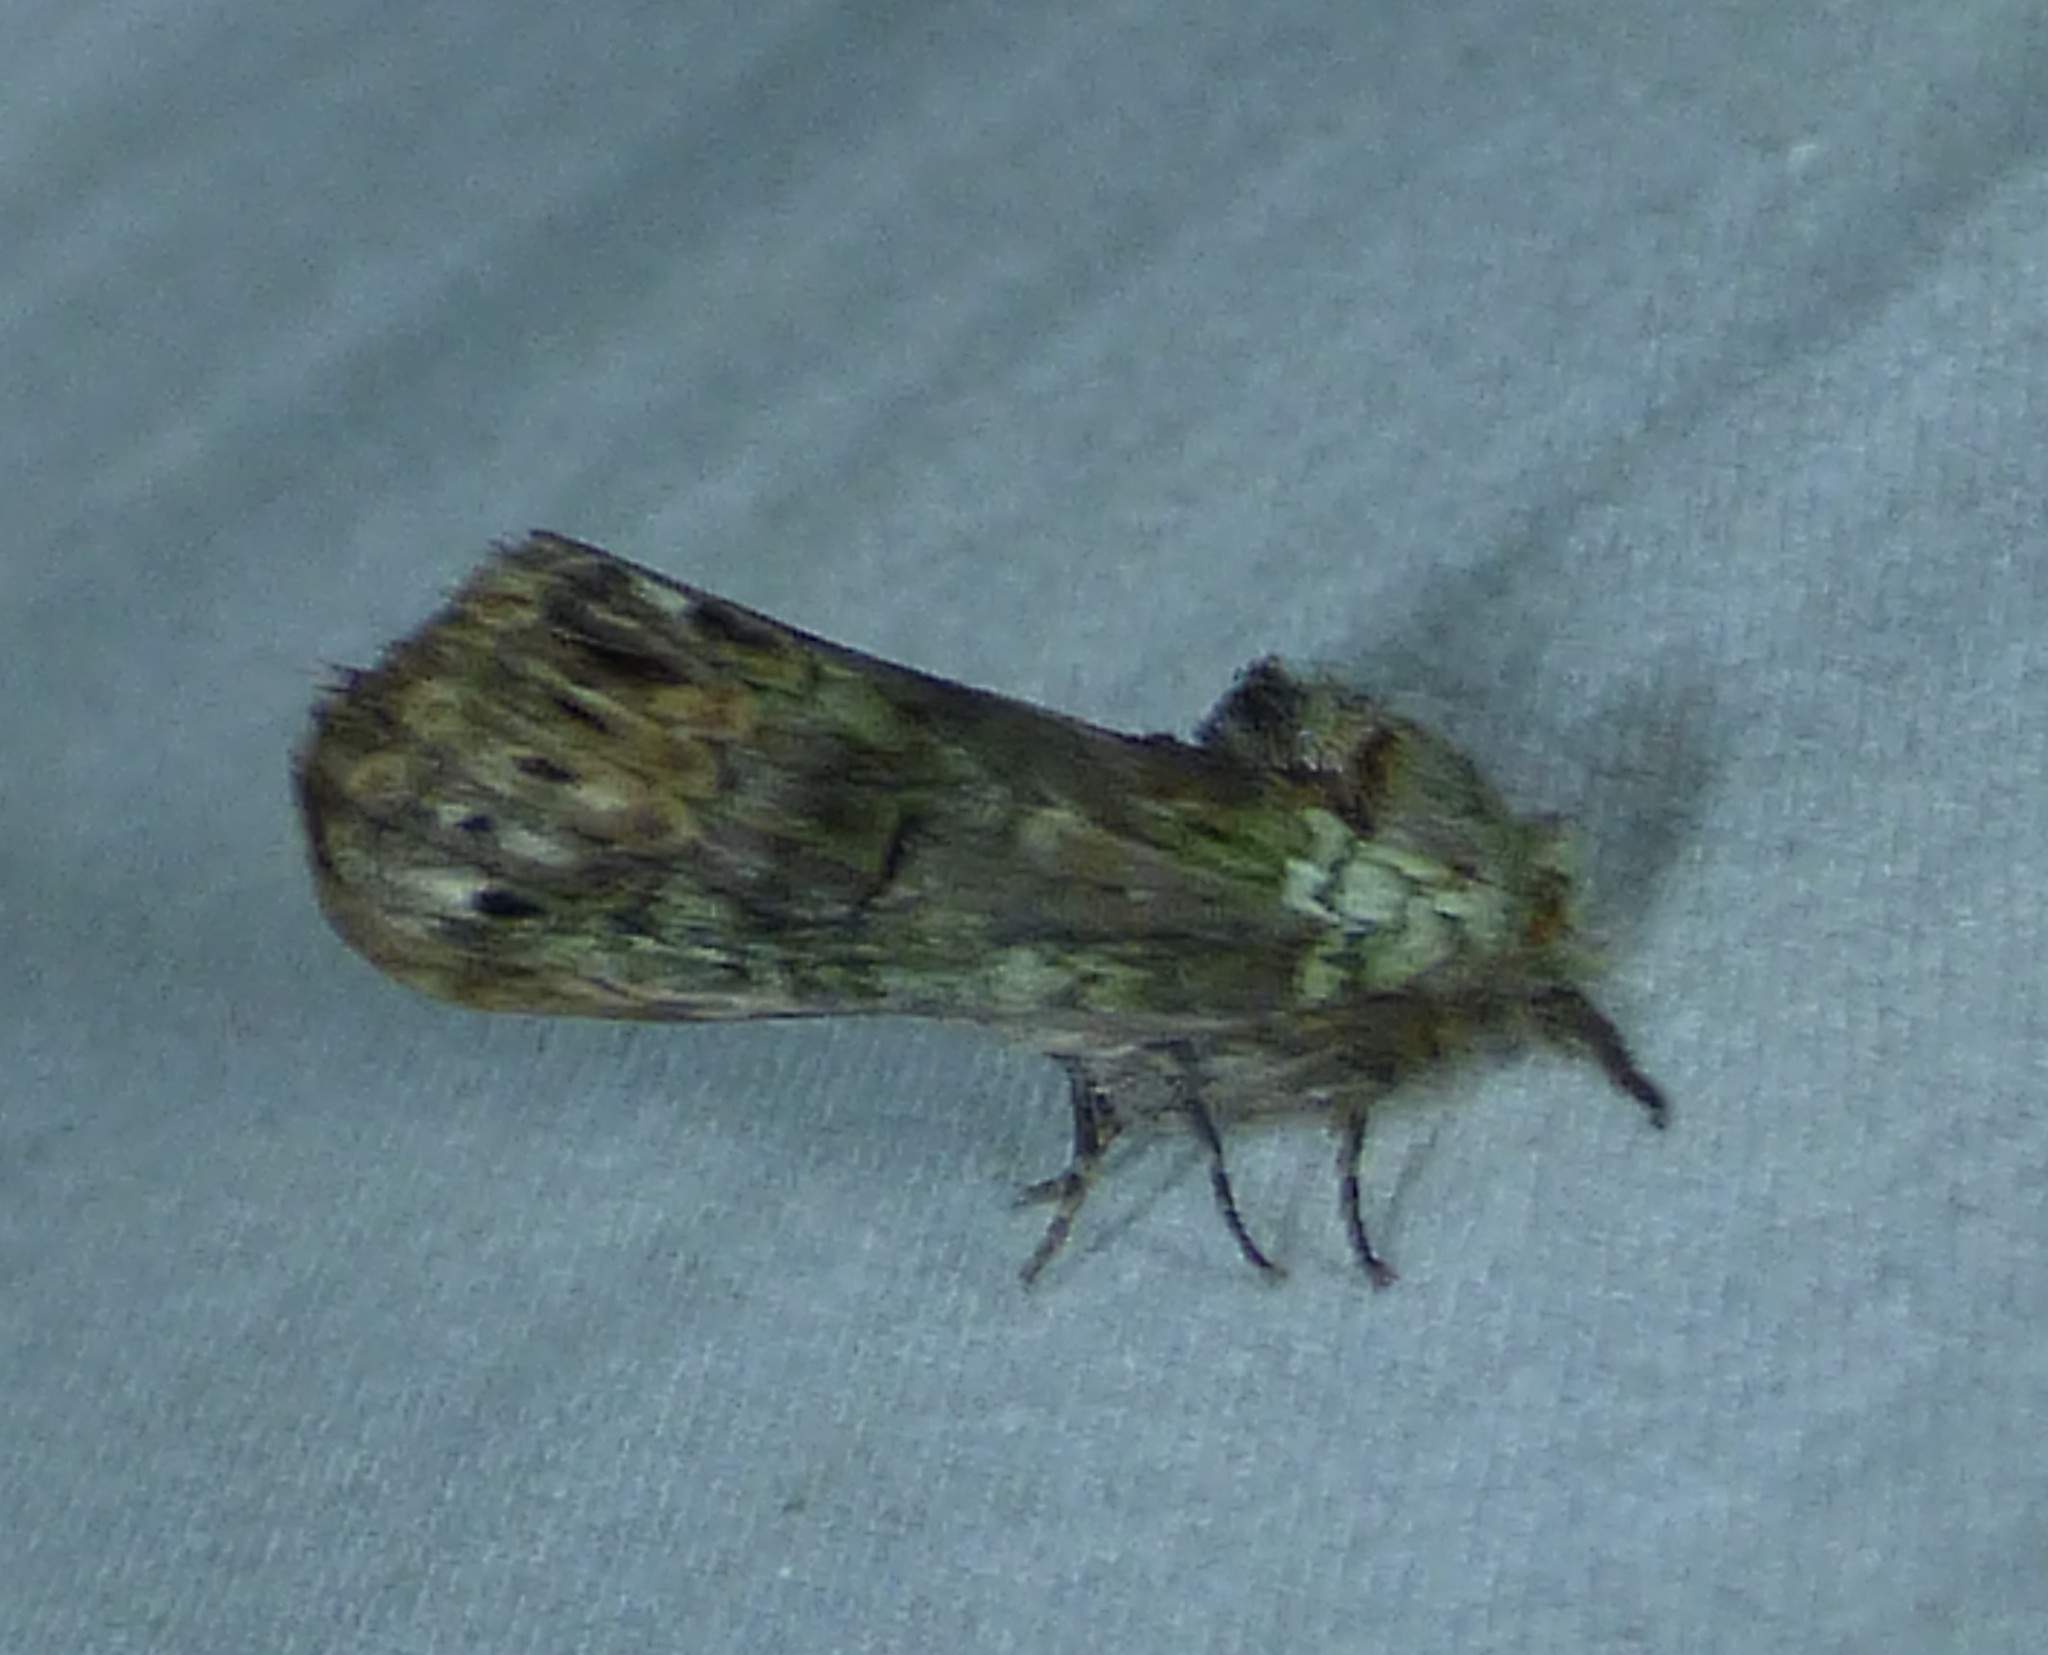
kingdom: Animalia
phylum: Arthropoda
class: Insecta
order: Lepidoptera
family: Notodontidae
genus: Schizura
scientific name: Schizura
